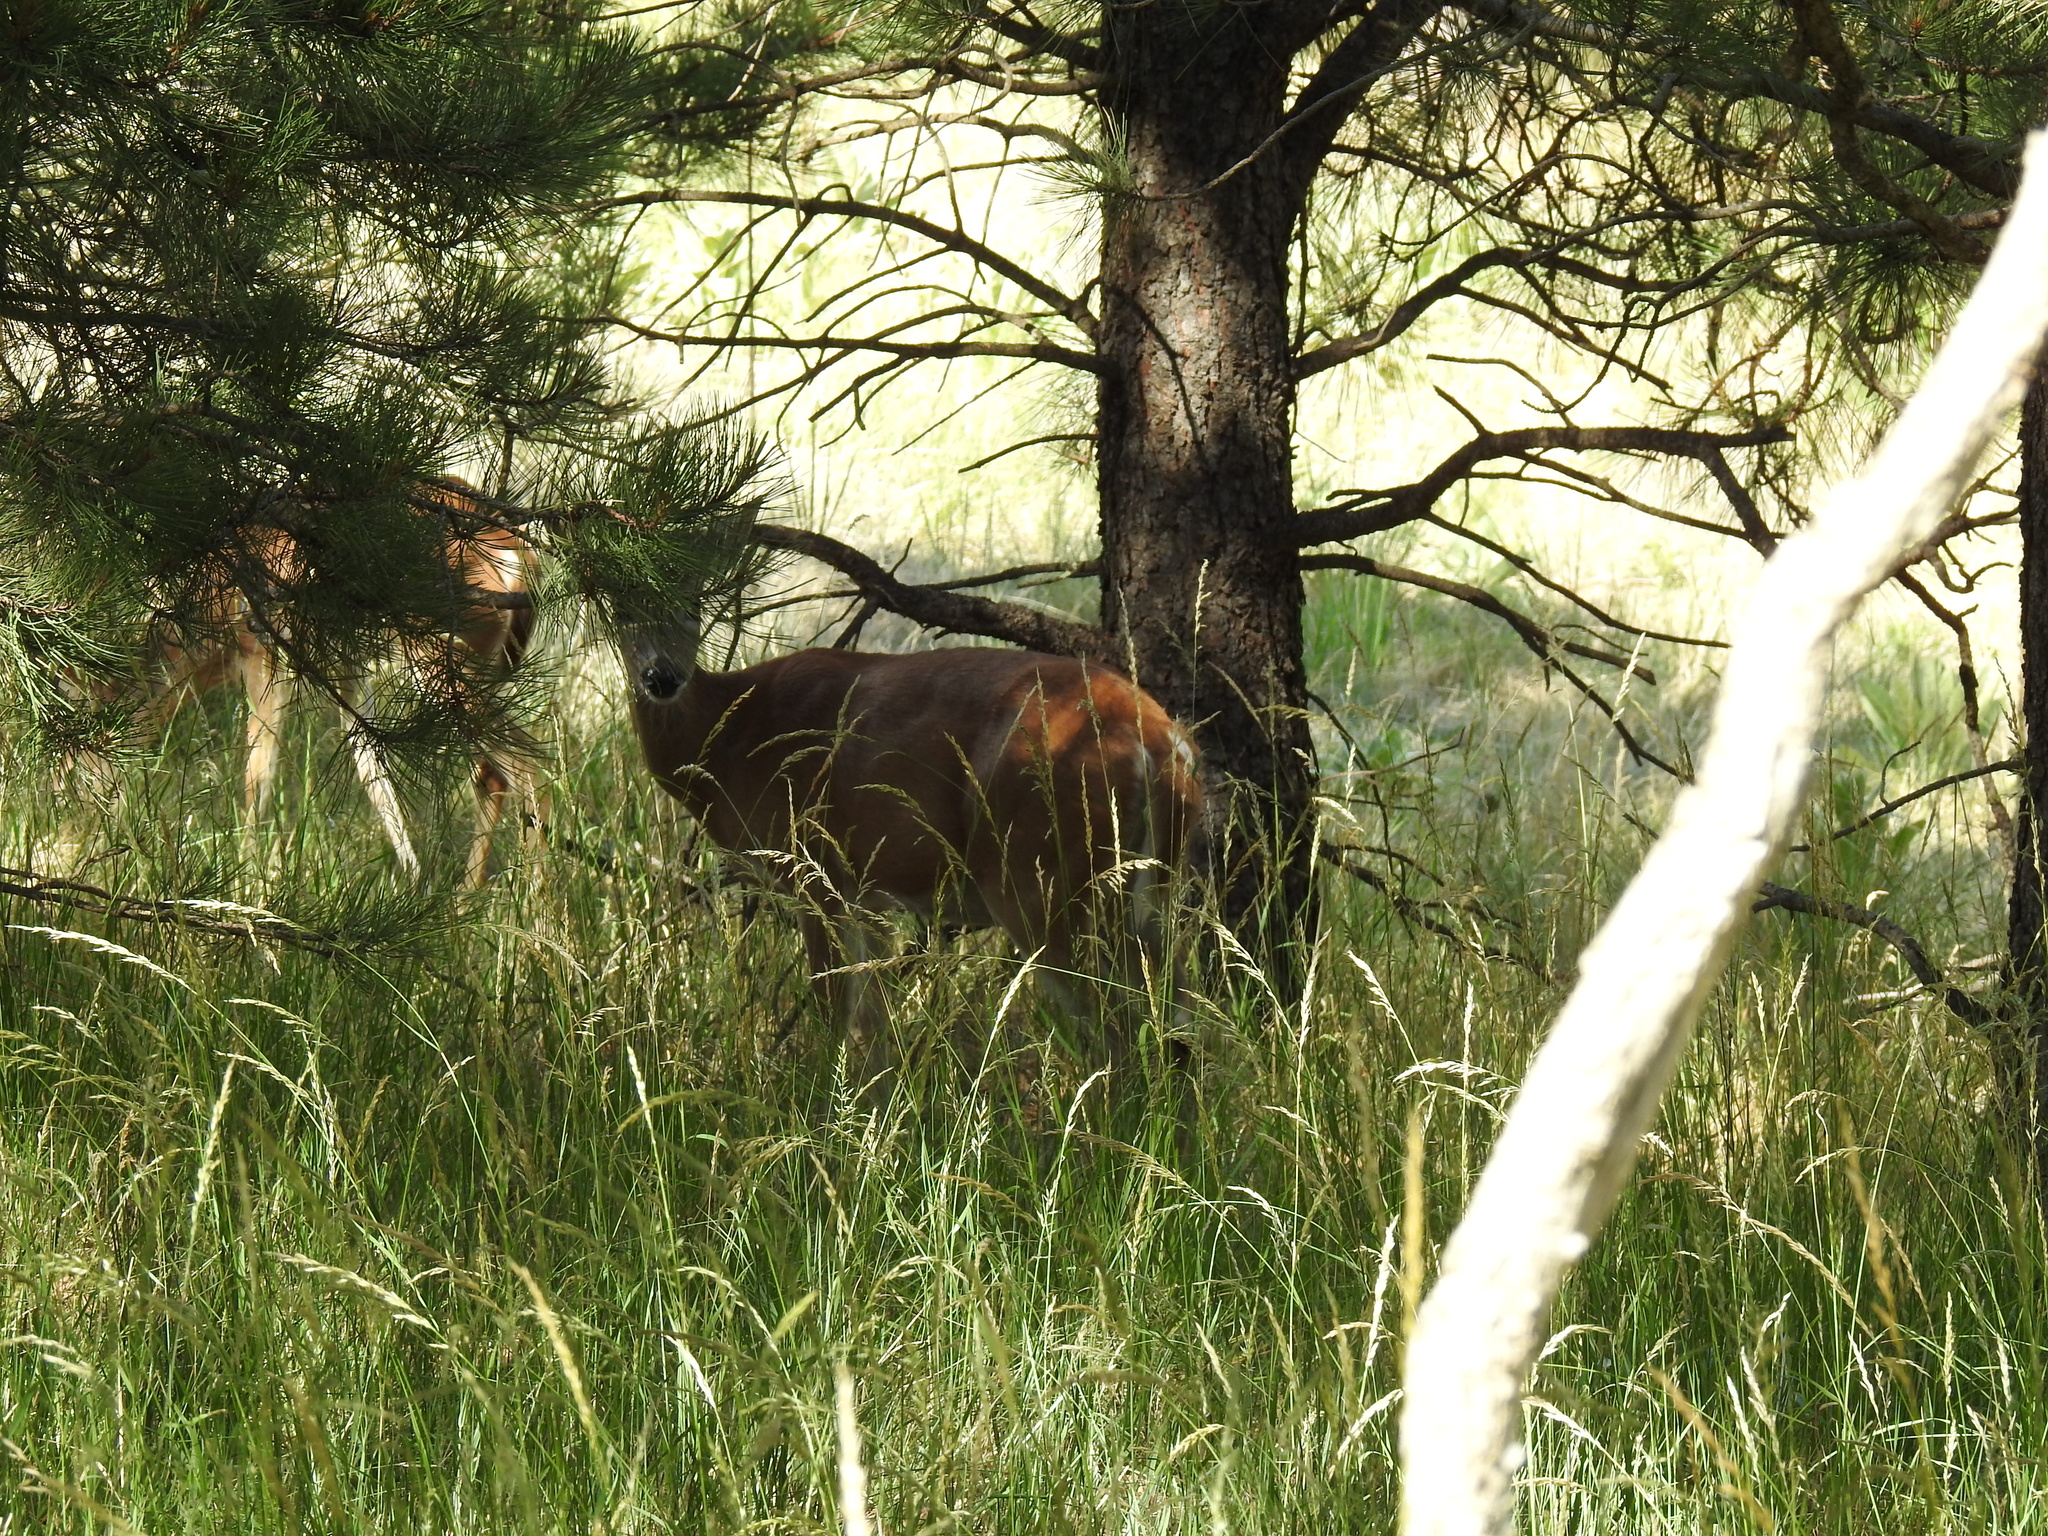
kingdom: Animalia
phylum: Chordata
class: Mammalia
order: Artiodactyla
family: Cervidae
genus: Odocoileus
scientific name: Odocoileus virginianus
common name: White-tailed deer
